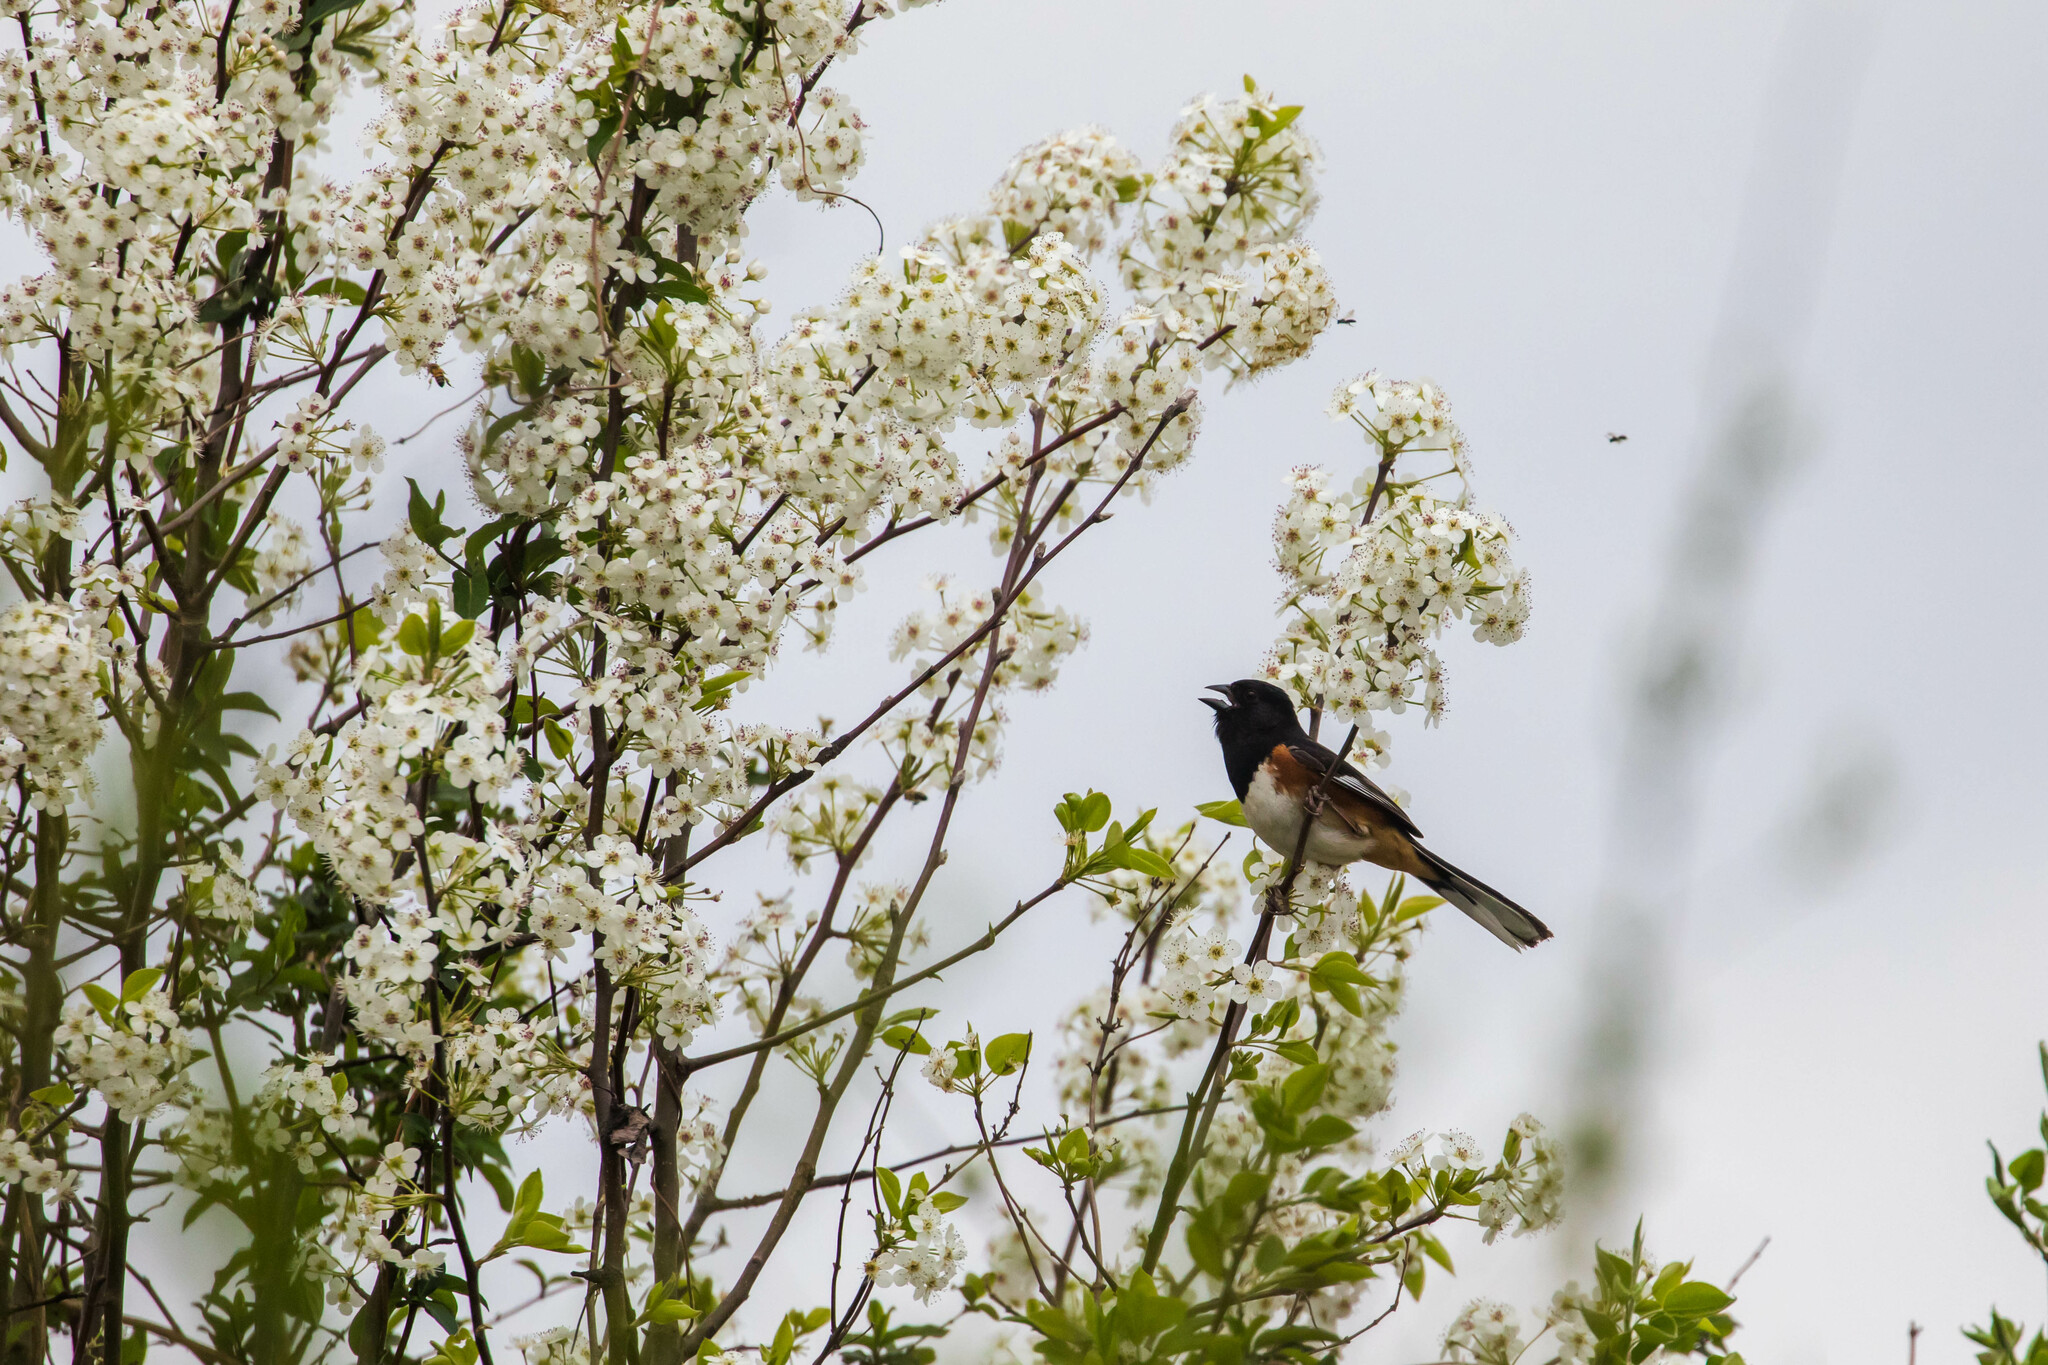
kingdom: Animalia
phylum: Chordata
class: Aves
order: Passeriformes
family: Passerellidae
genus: Pipilo
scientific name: Pipilo erythrophthalmus
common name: Eastern towhee
